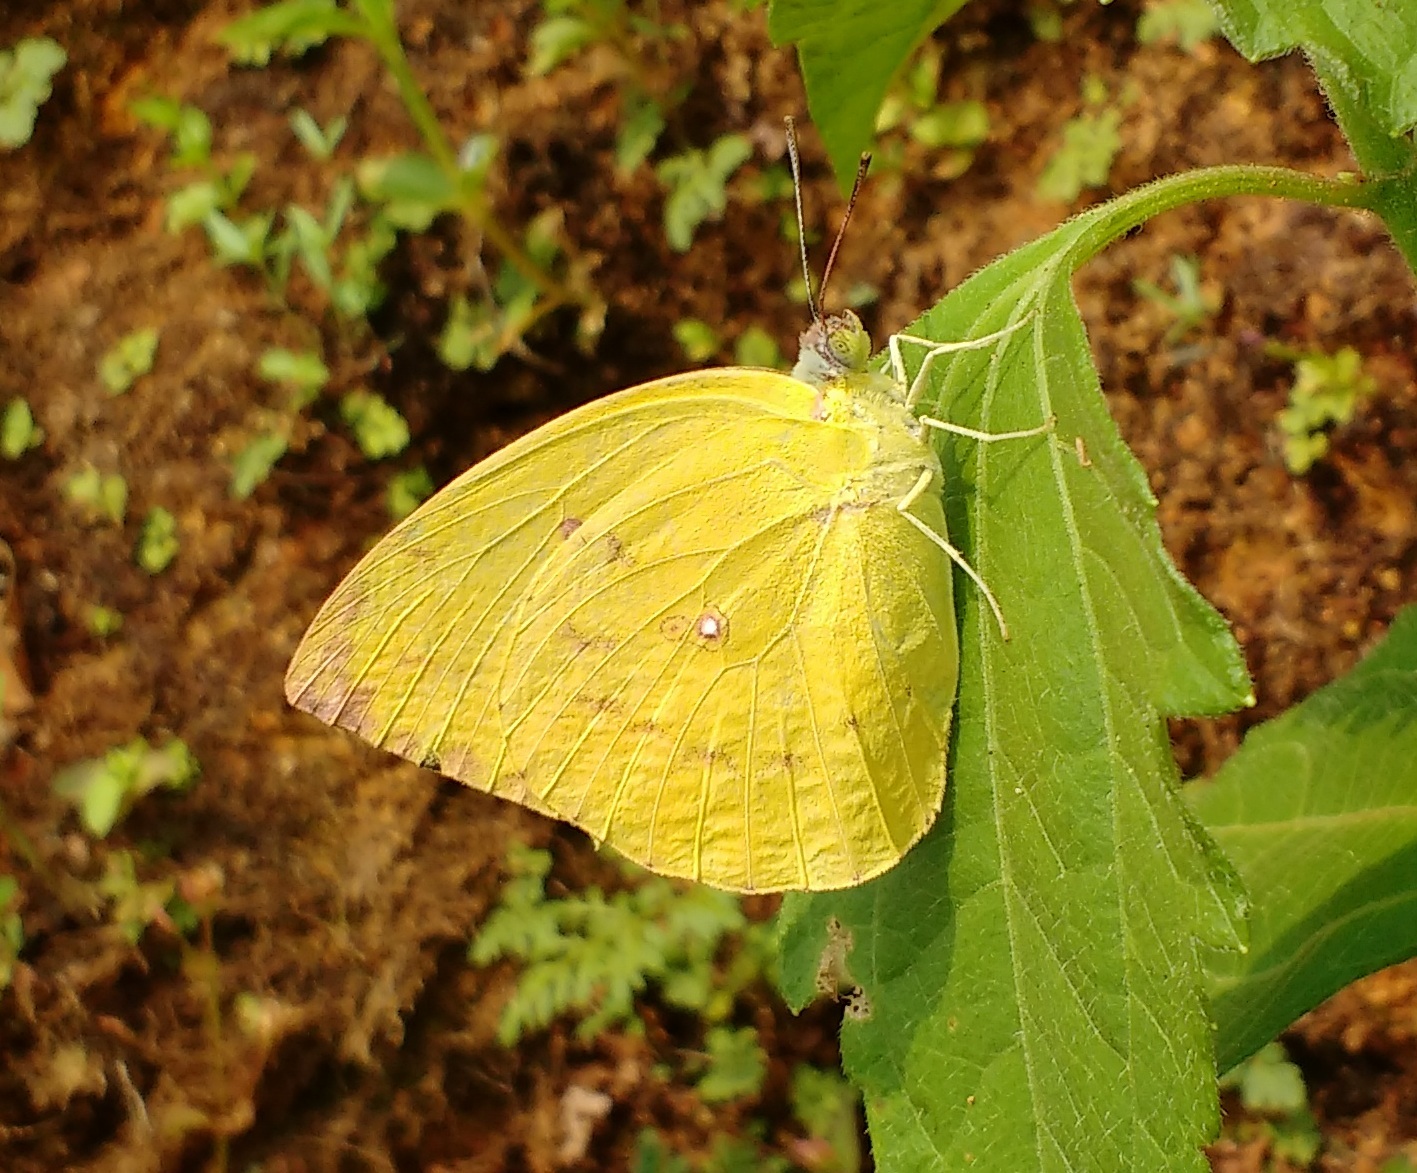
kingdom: Animalia
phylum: Arthropoda
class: Insecta
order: Lepidoptera
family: Pieridae
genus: Catopsilia
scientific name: Catopsilia pomona
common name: Common emigrant
